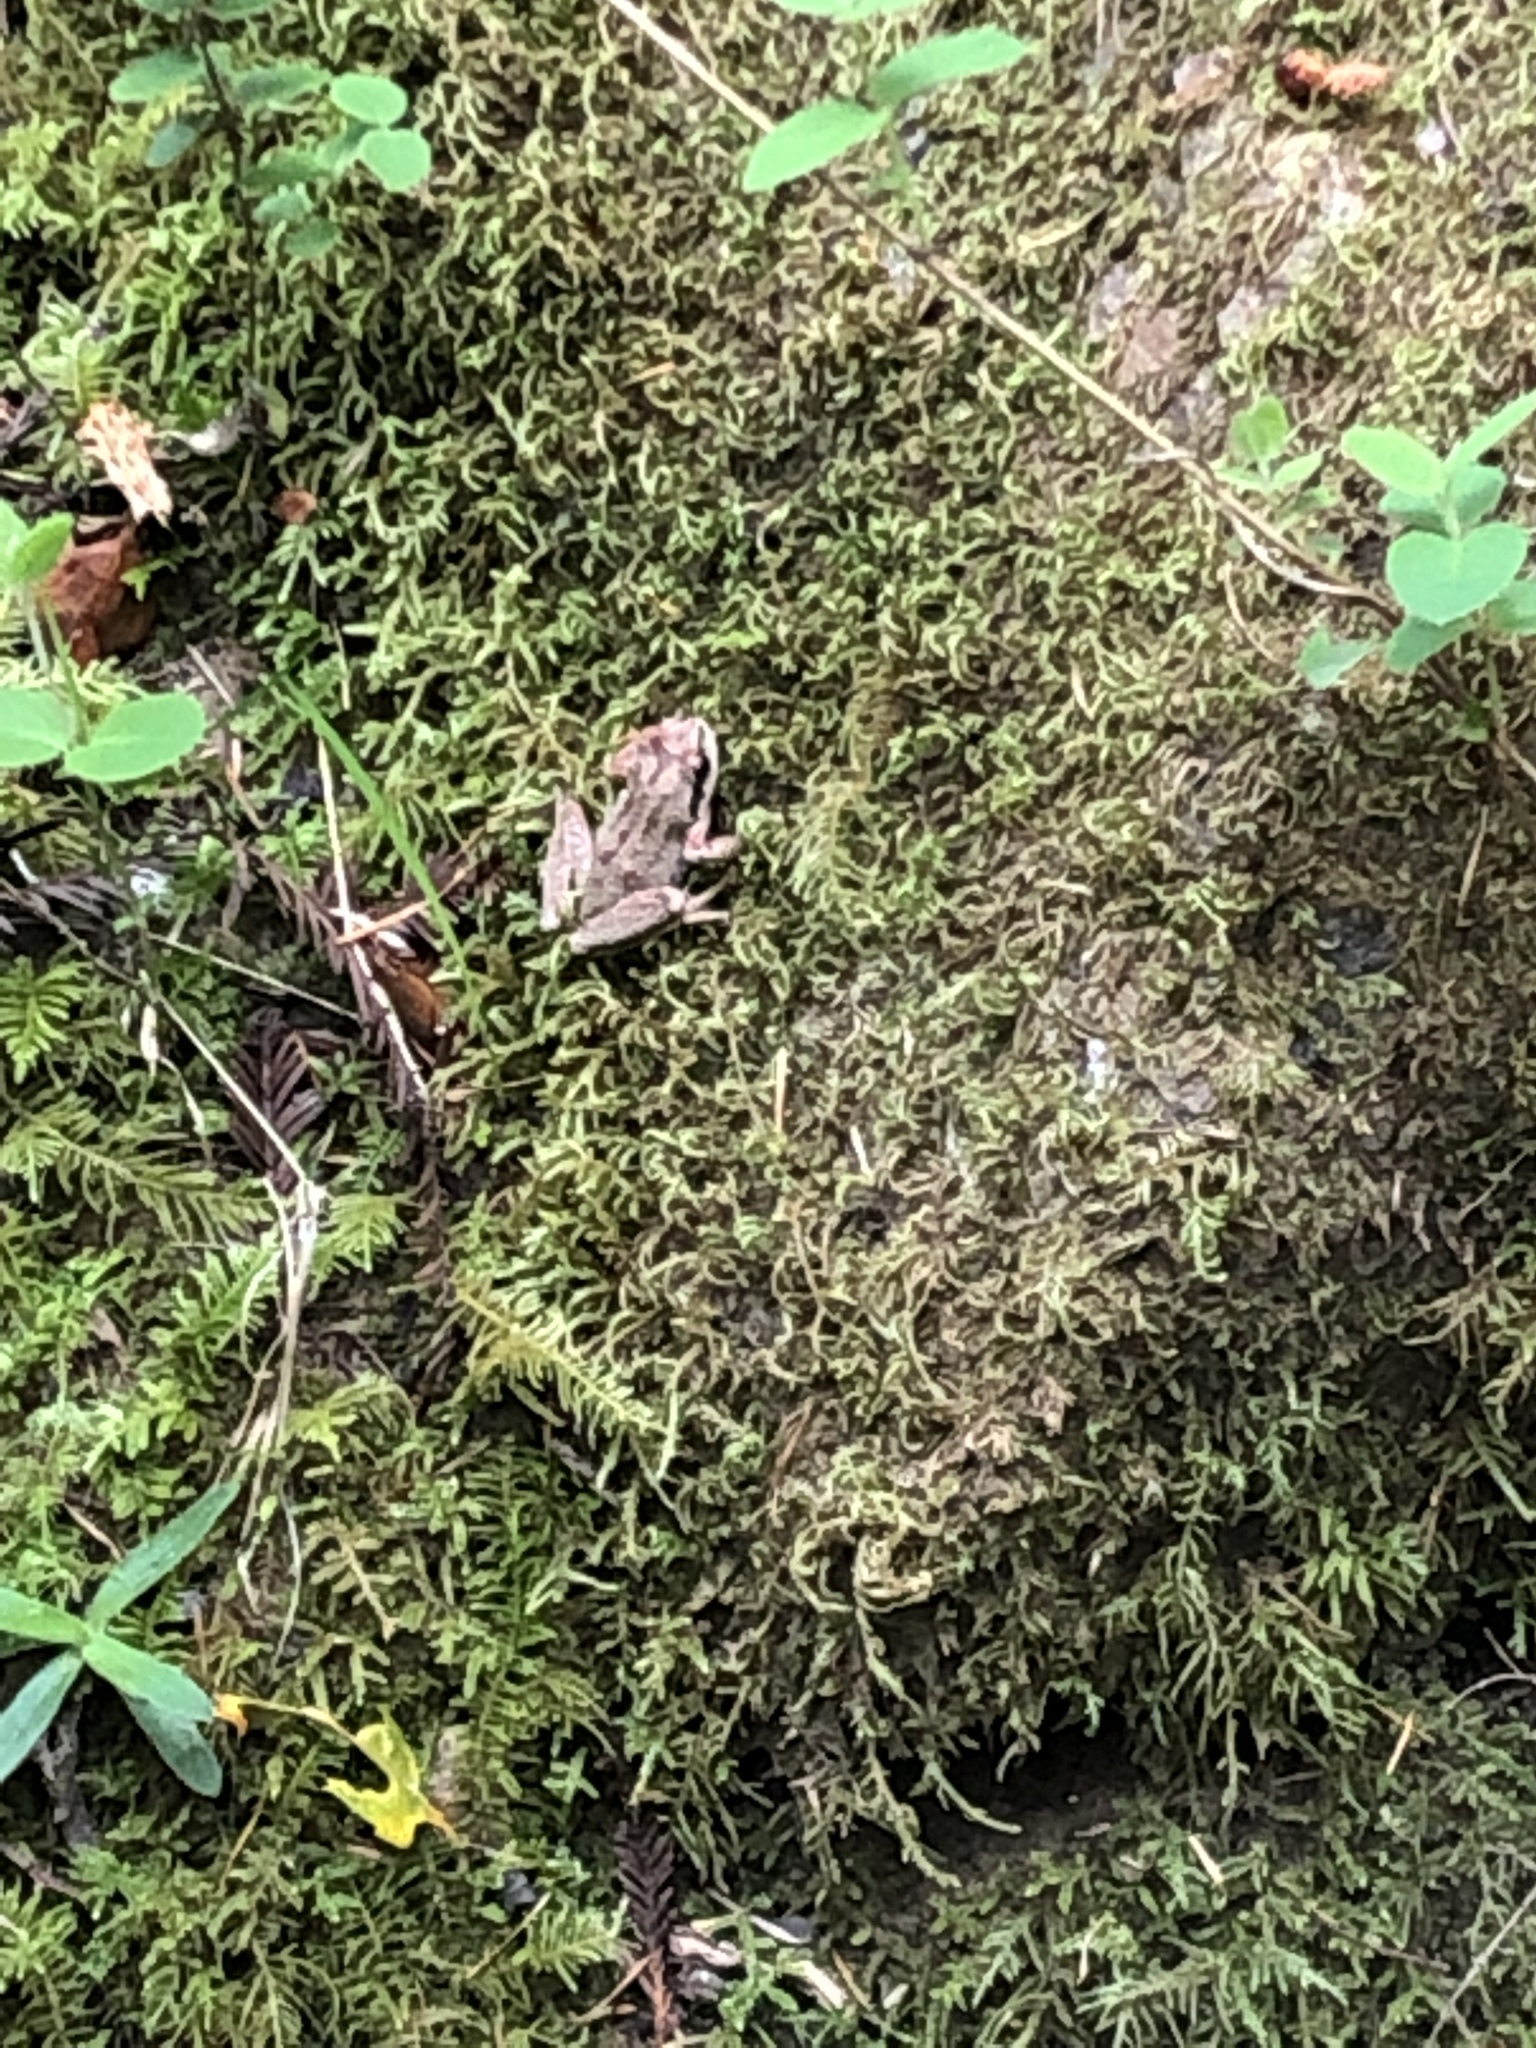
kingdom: Animalia
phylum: Chordata
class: Amphibia
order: Anura
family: Hylidae
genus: Pseudacris
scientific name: Pseudacris regilla
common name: Pacific chorus frog
